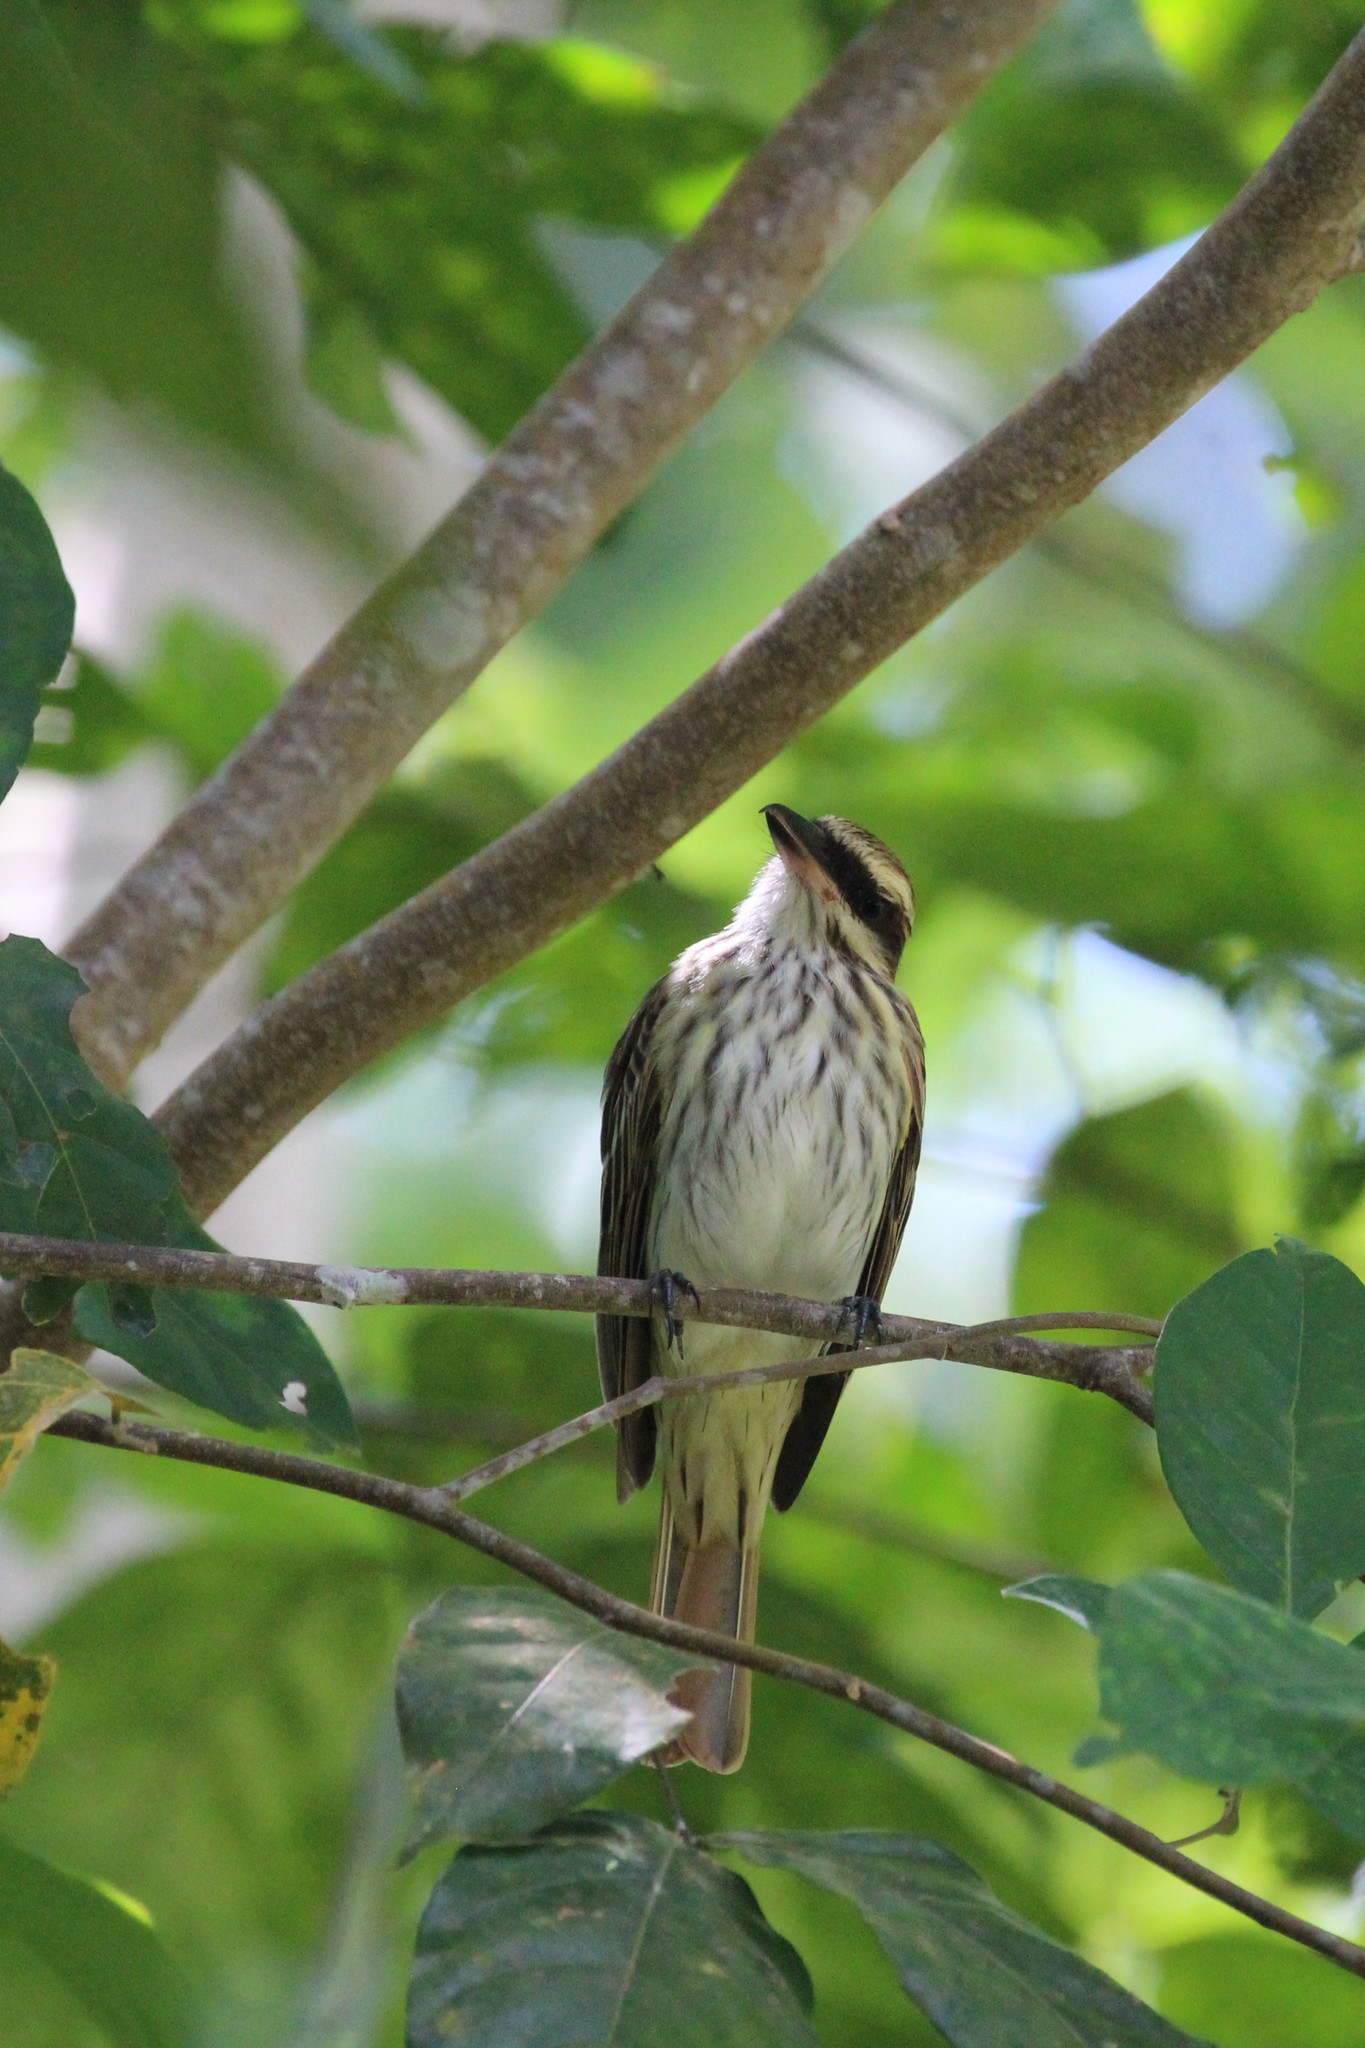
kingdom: Animalia
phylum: Chordata
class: Aves
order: Passeriformes
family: Tyrannidae
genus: Myiodynastes
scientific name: Myiodynastes maculatus
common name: Streaked flycatcher
